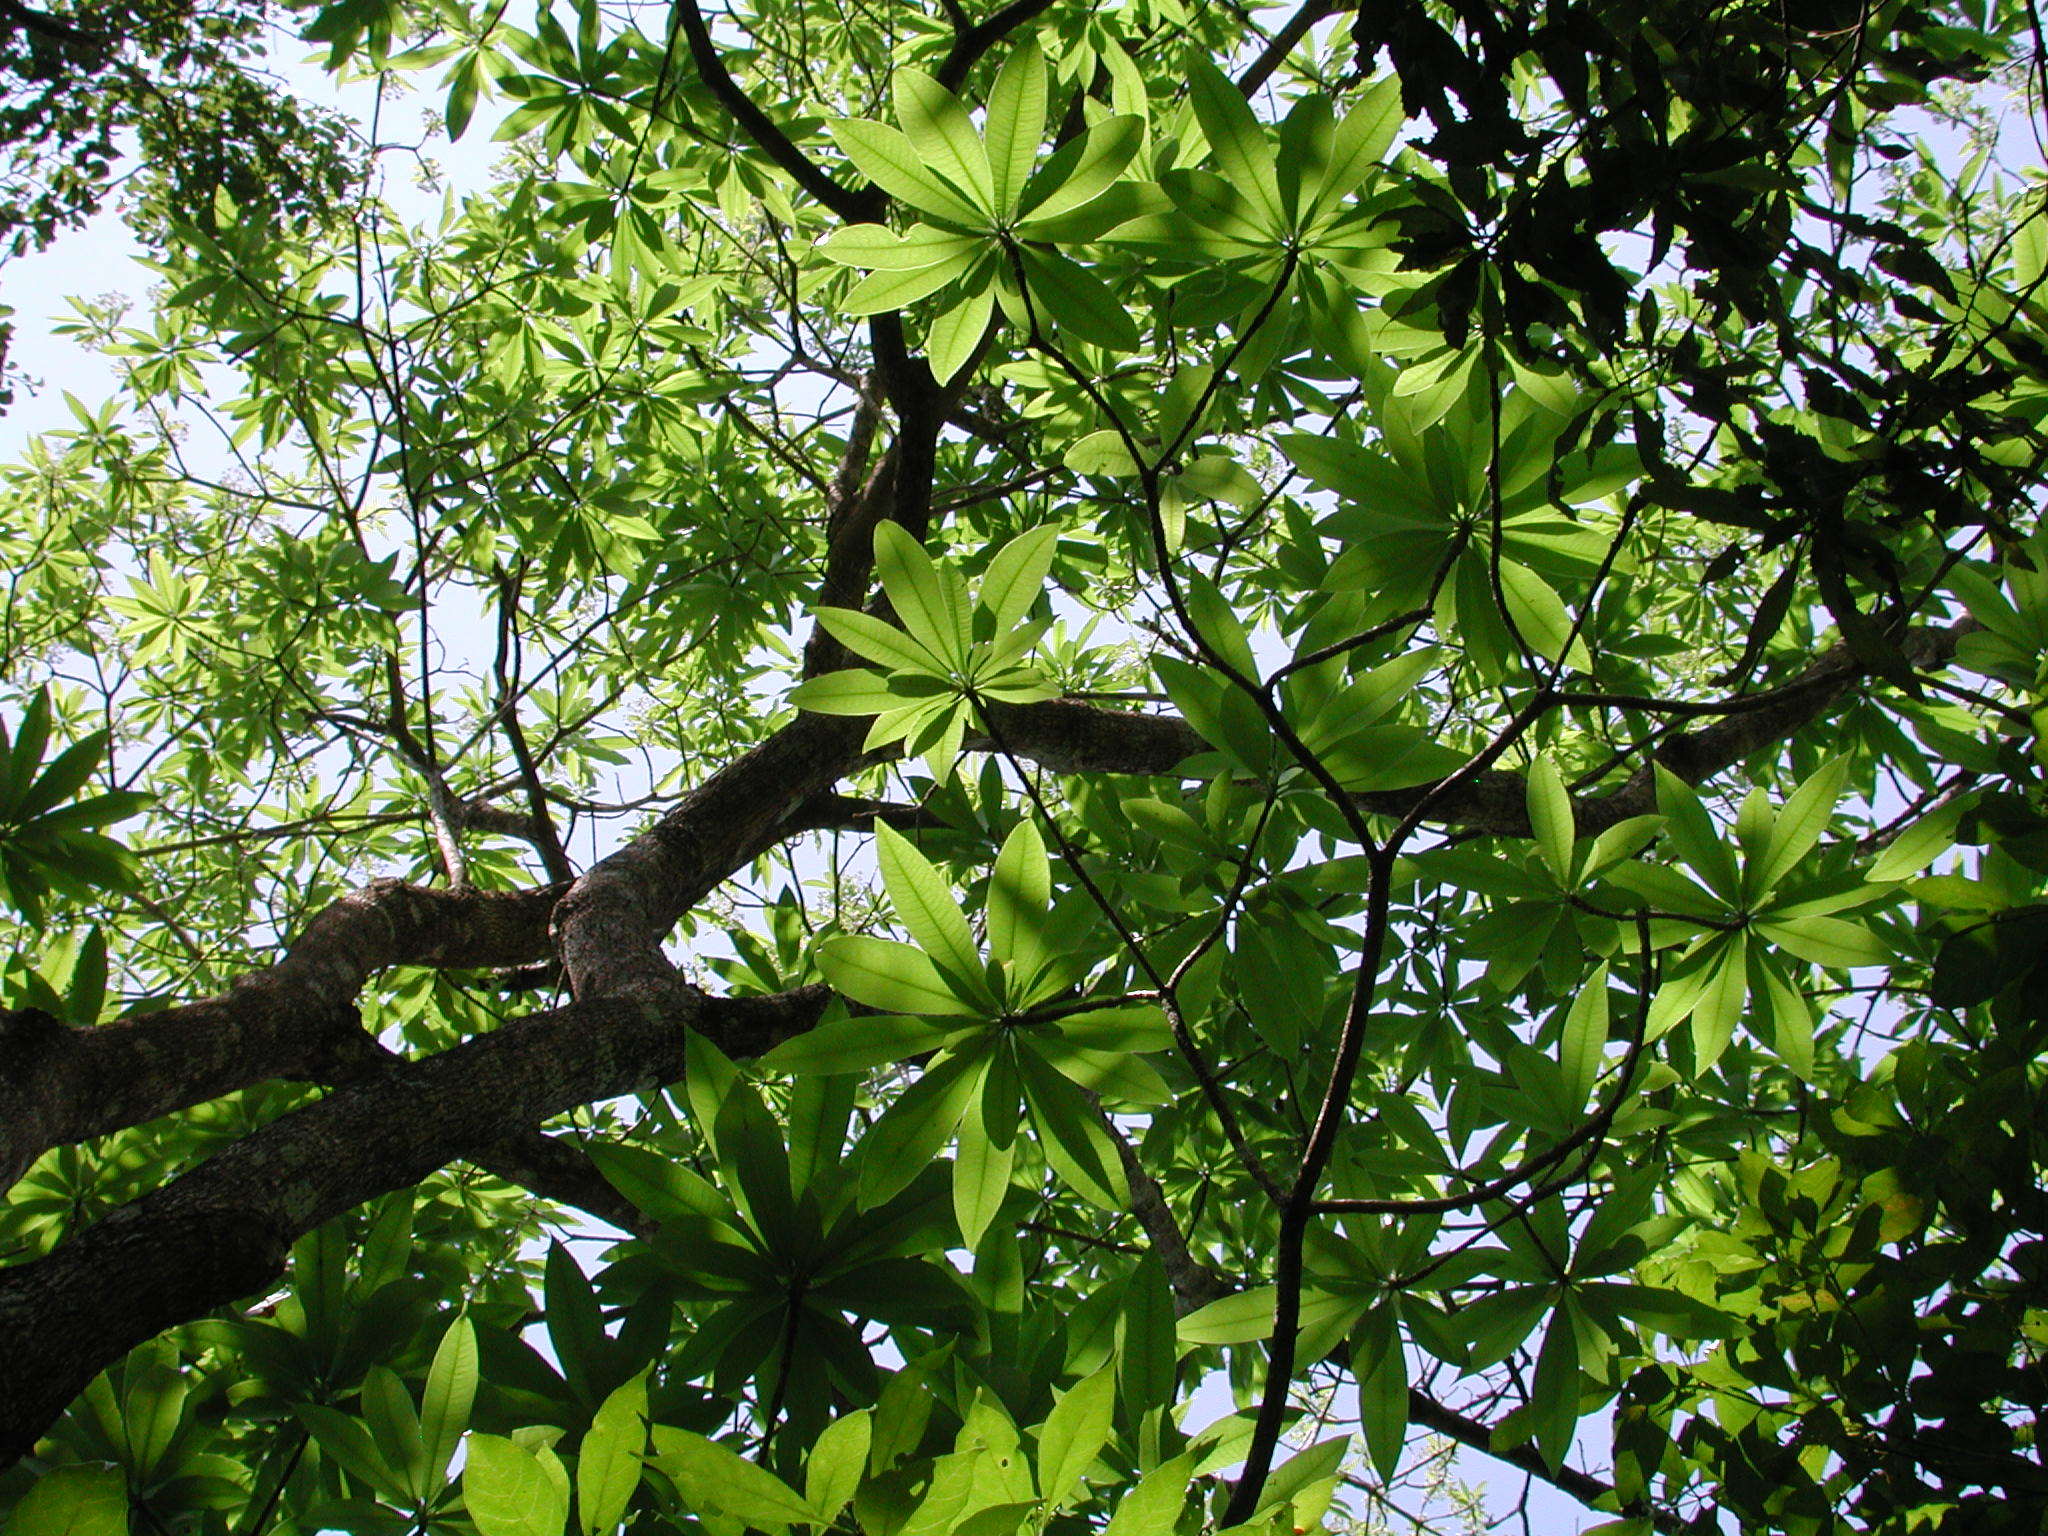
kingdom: Plantae
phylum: Tracheophyta
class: Magnoliopsida
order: Gentianales
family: Apocynaceae
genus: Rauvolfia
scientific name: Rauvolfia caffra
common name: Quininetree
